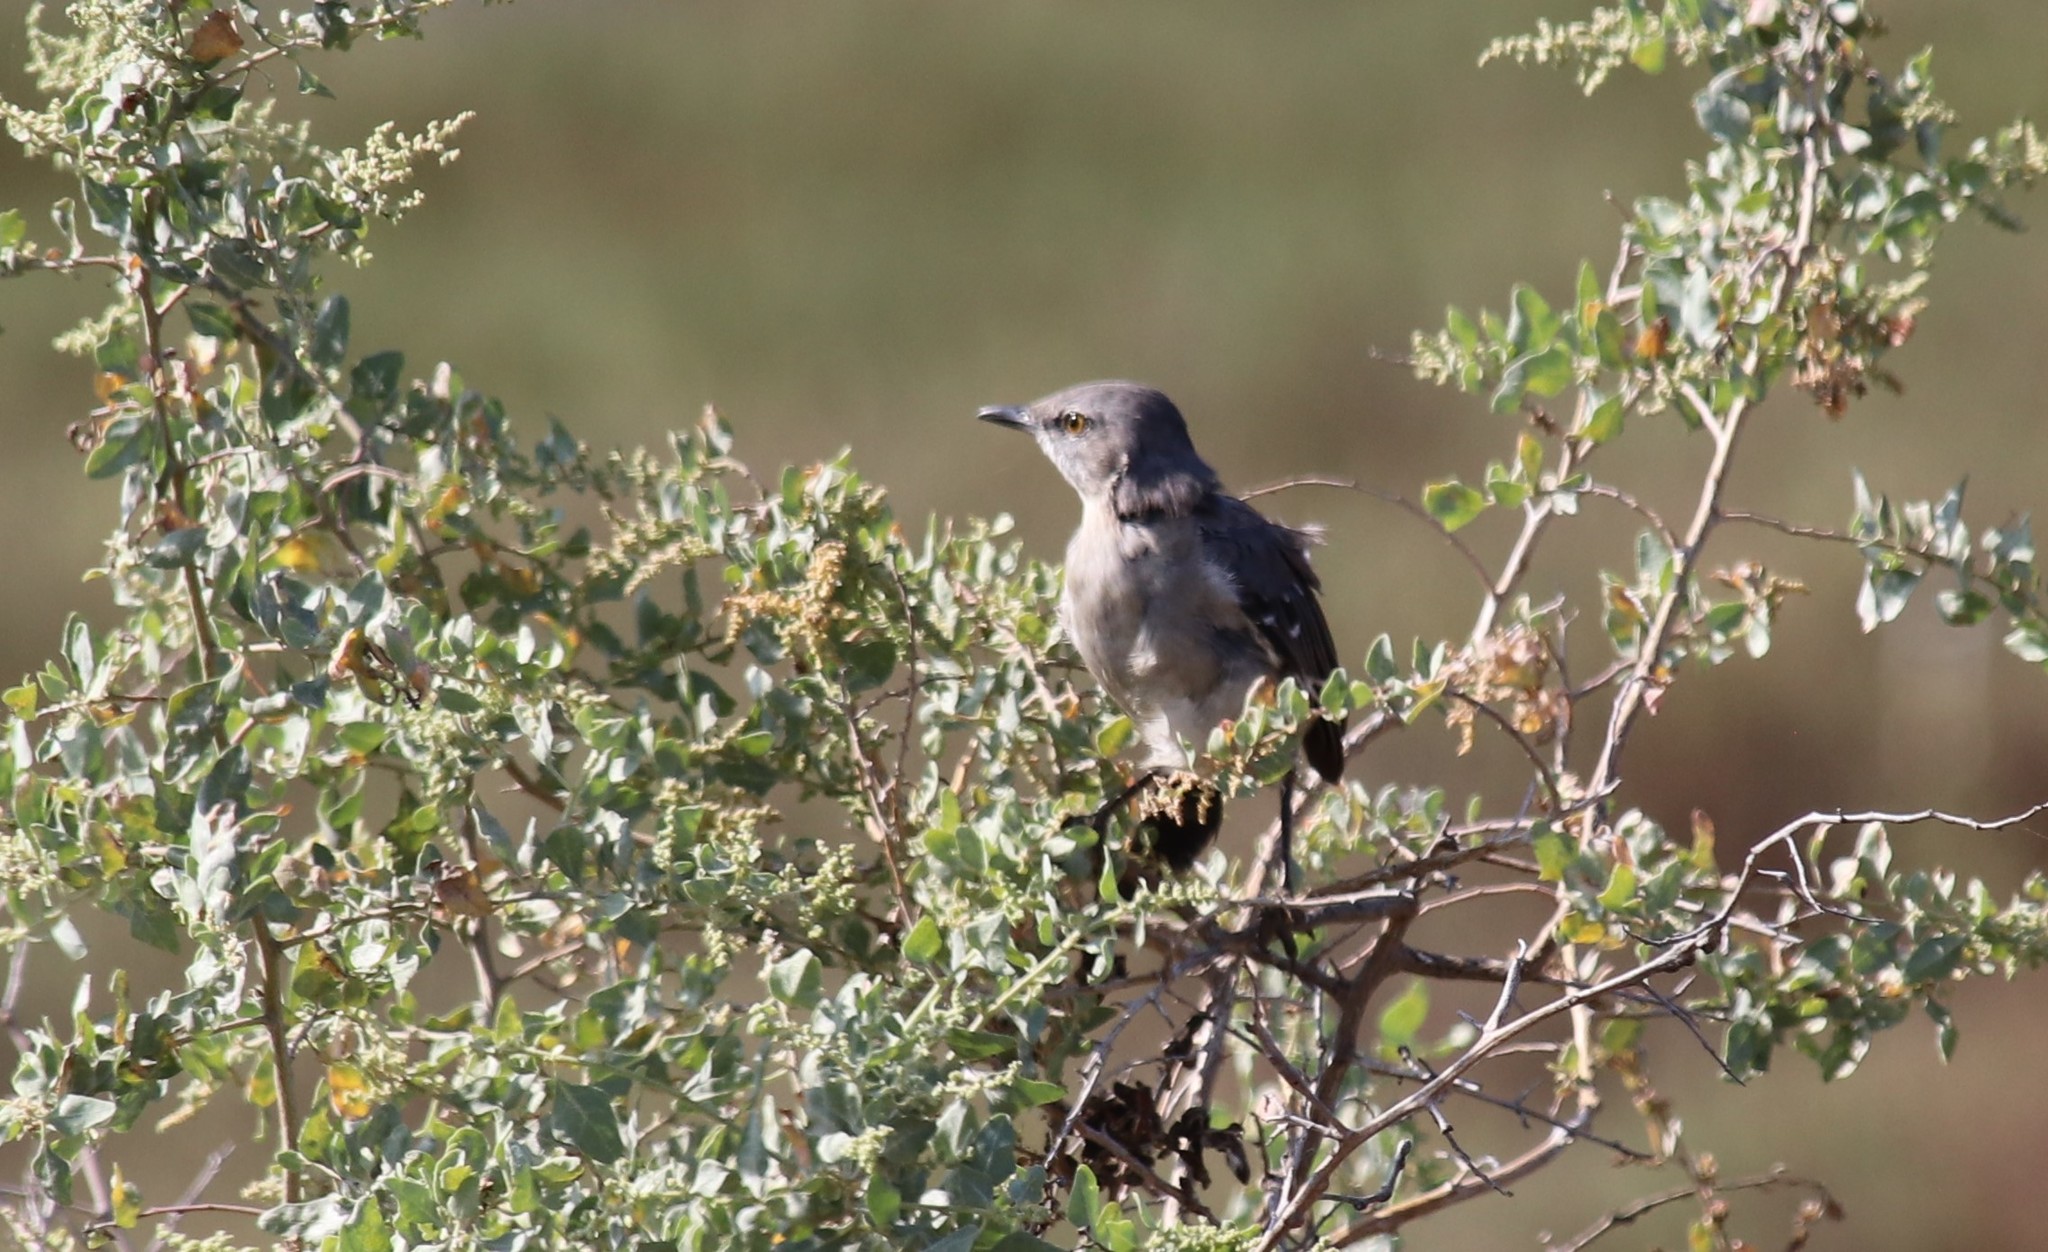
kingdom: Animalia
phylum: Chordata
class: Aves
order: Passeriformes
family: Mimidae
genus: Mimus
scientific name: Mimus polyglottos
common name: Northern mockingbird
